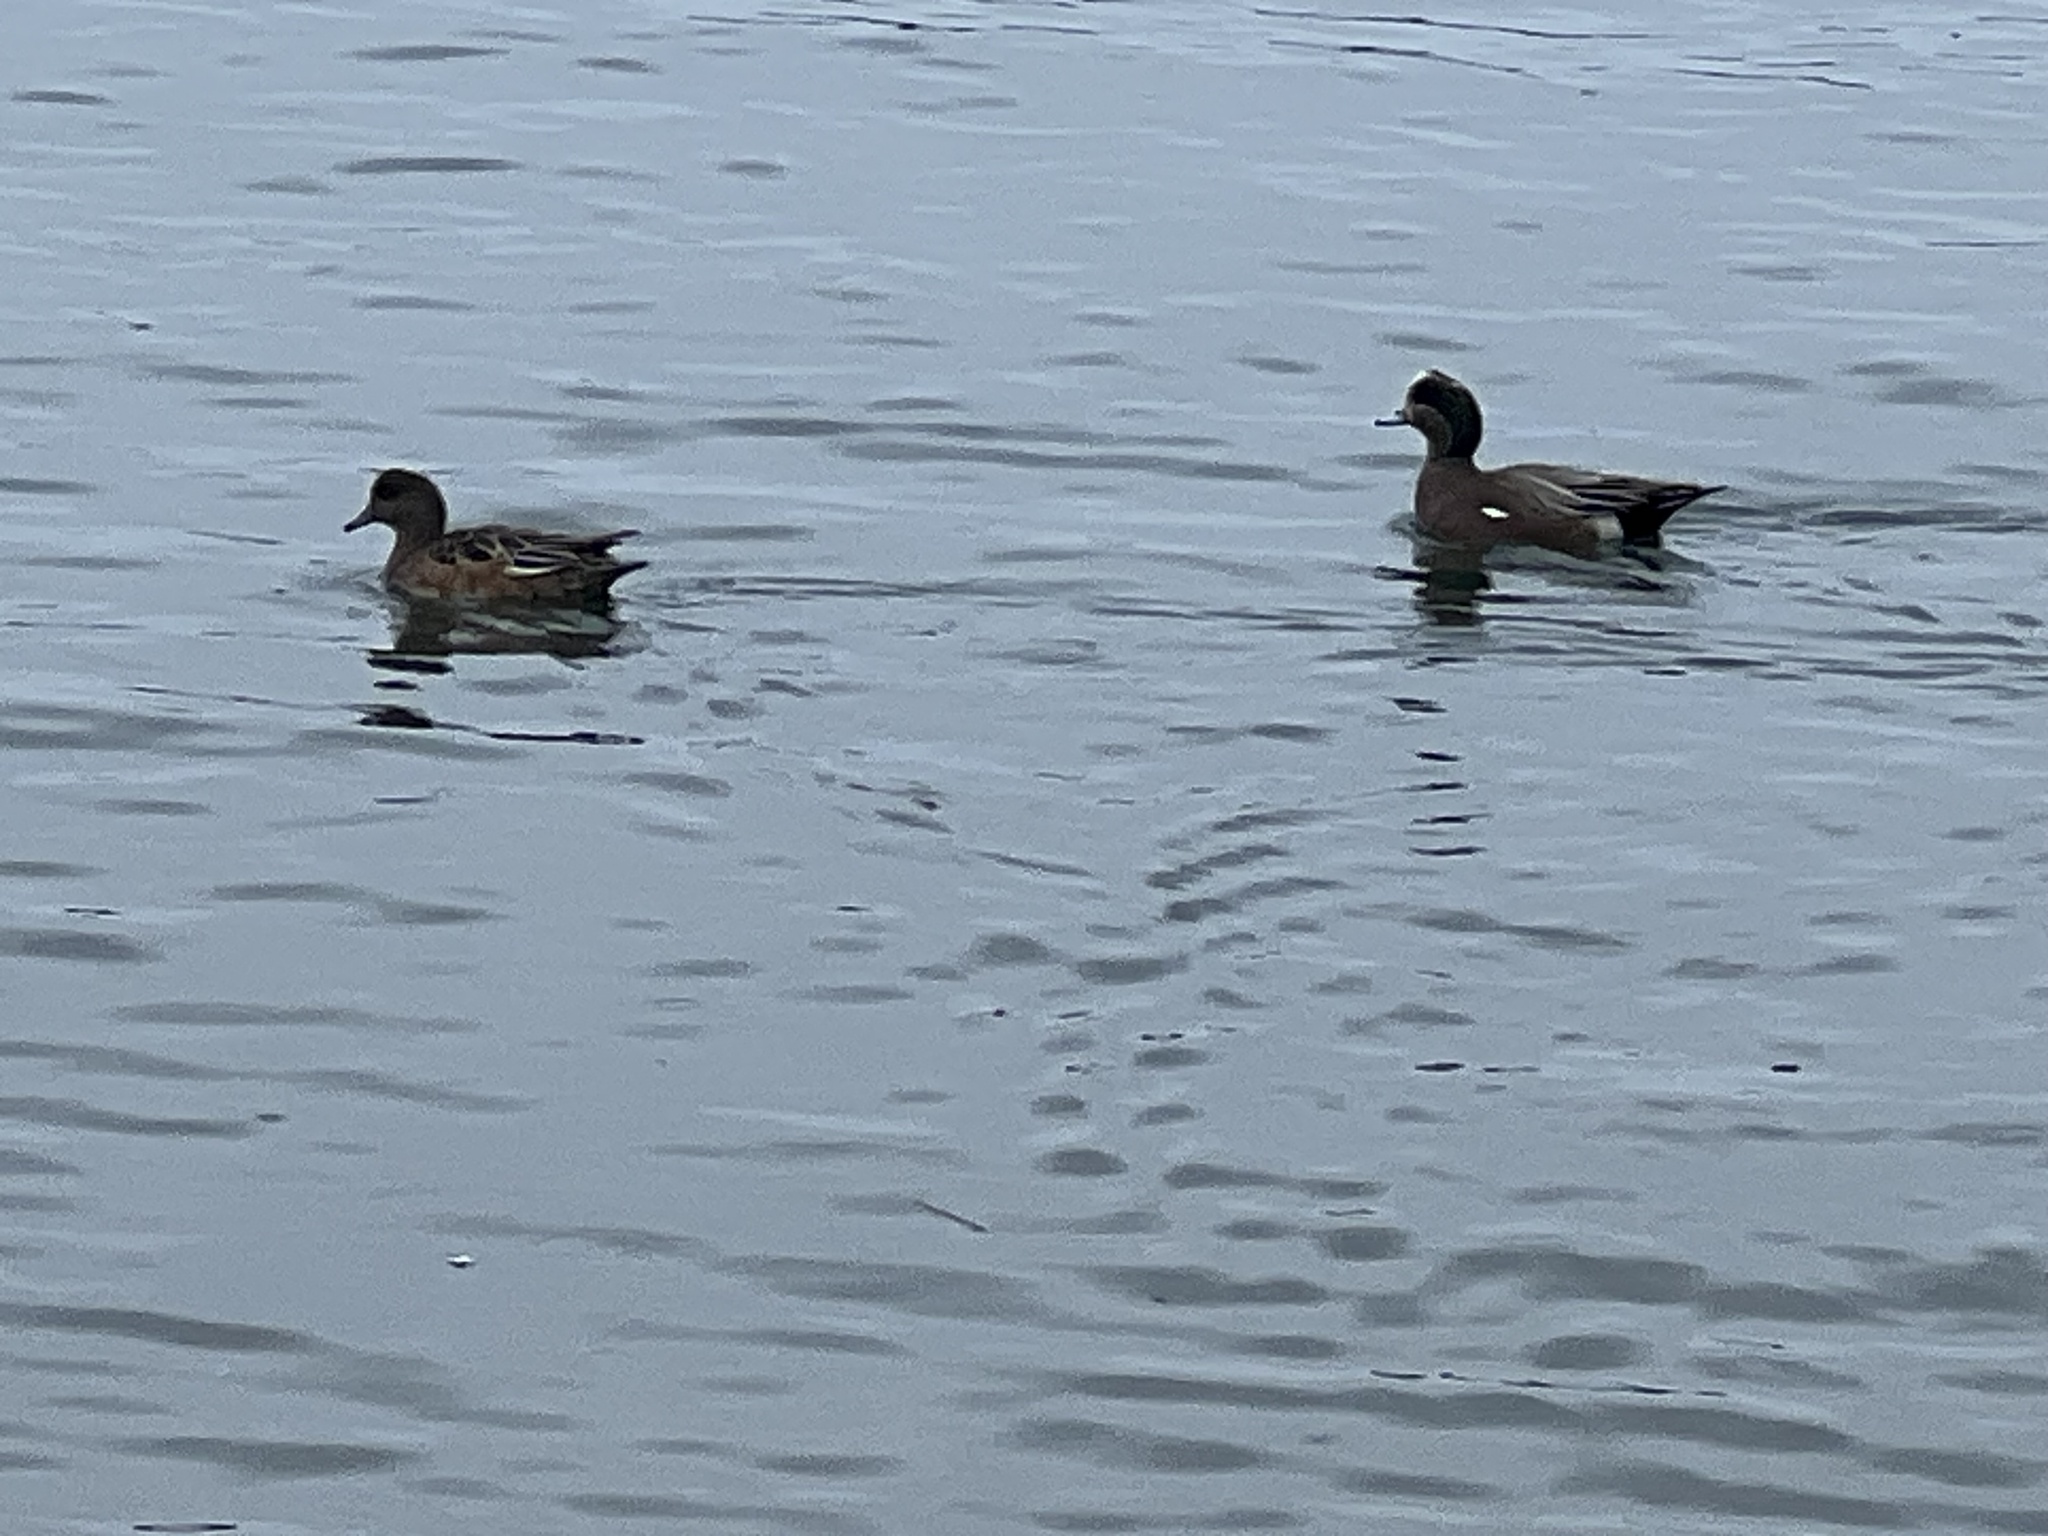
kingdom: Animalia
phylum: Chordata
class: Aves
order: Anseriformes
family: Anatidae
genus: Mareca
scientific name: Mareca americana
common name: American wigeon
